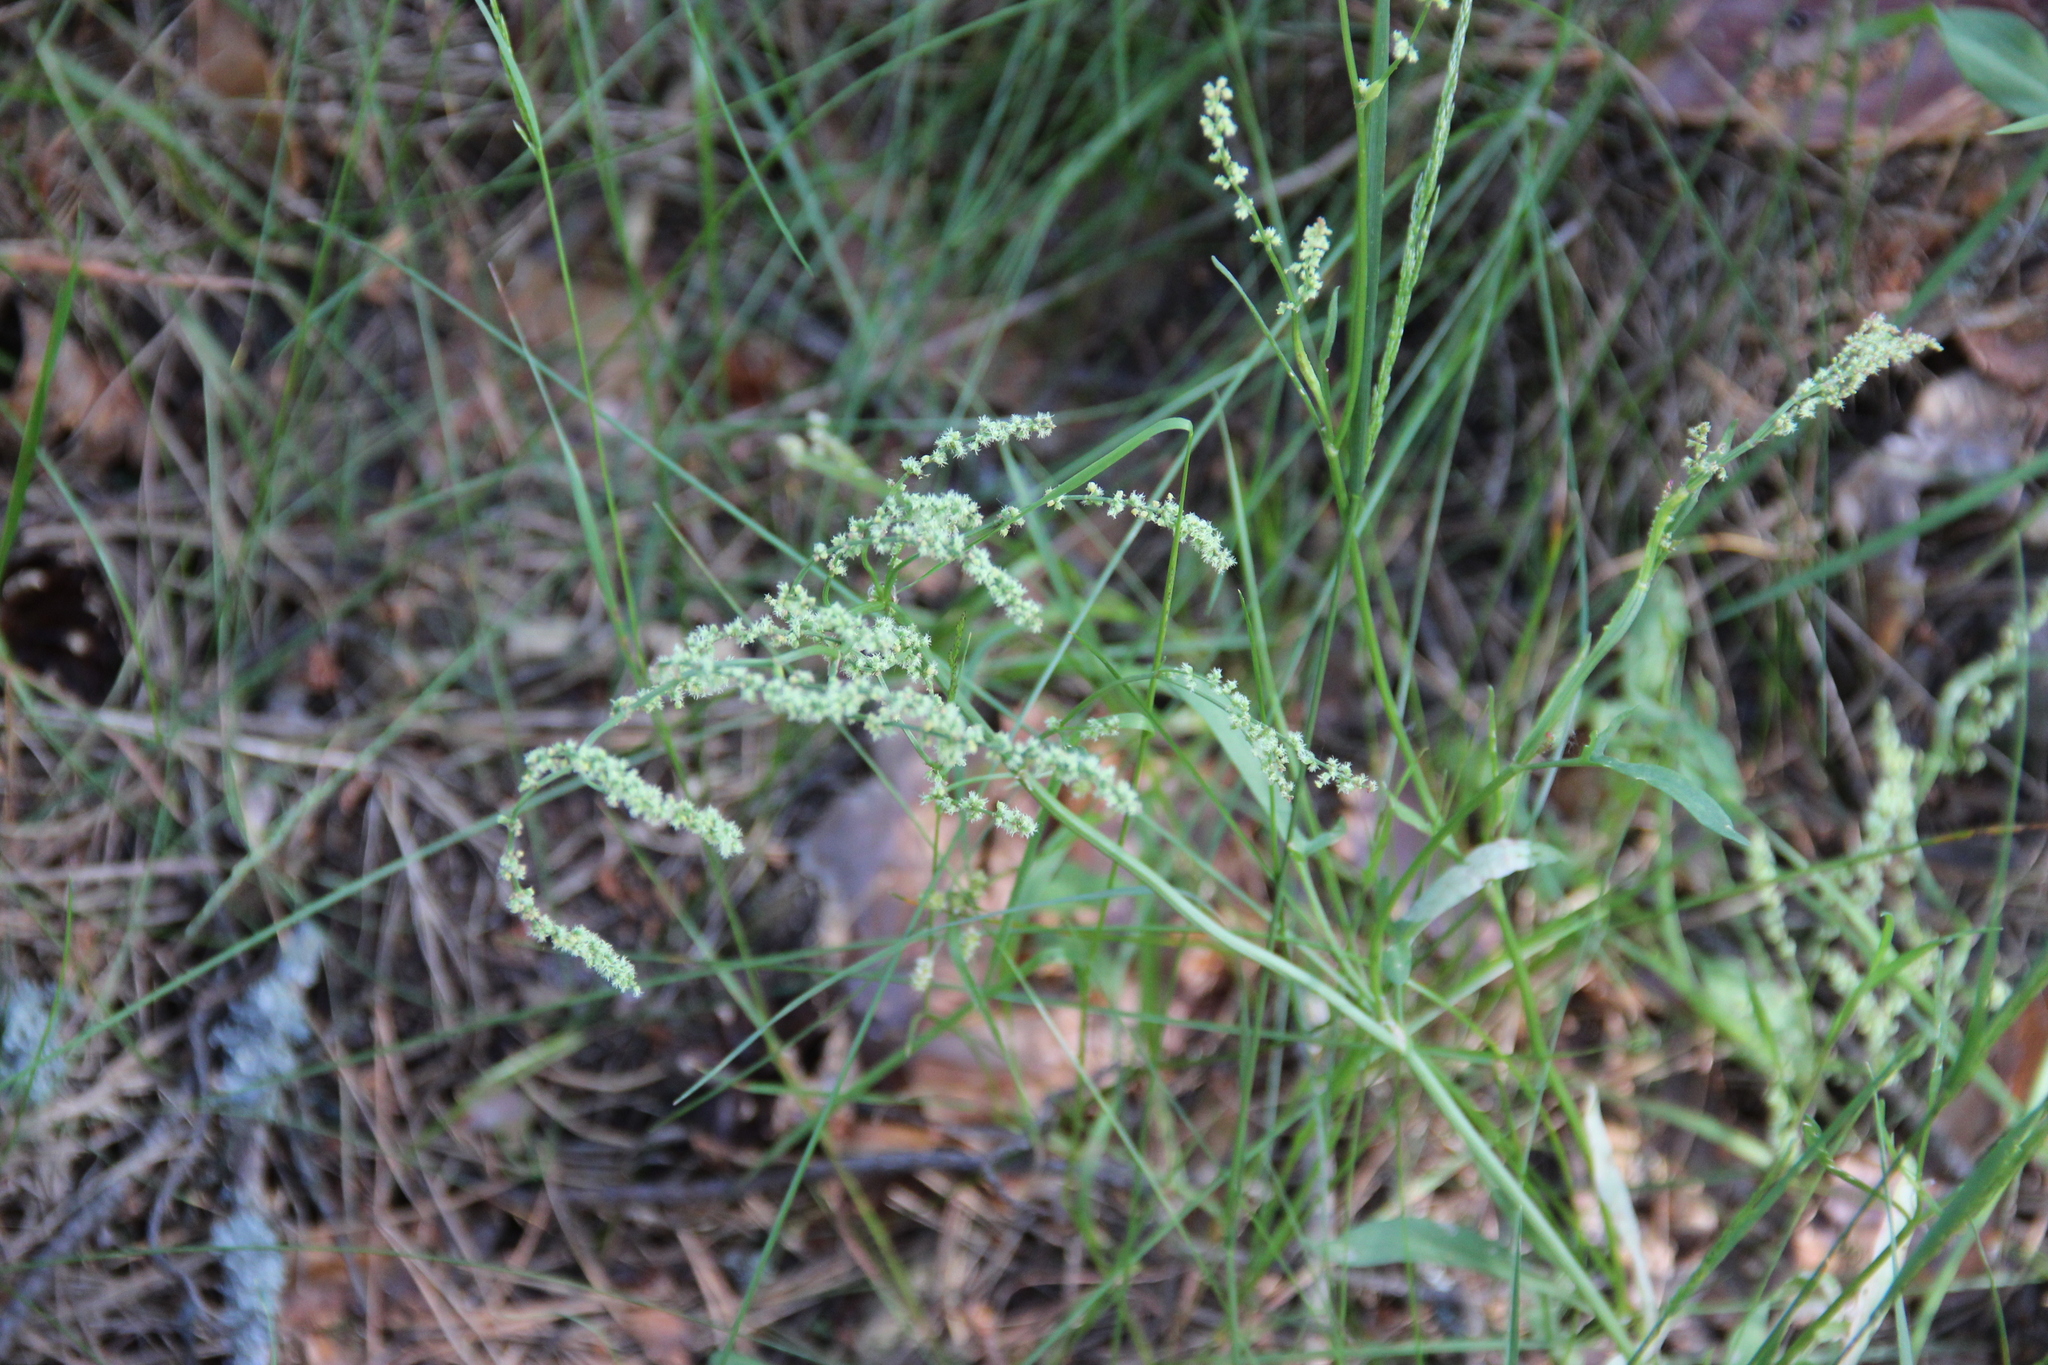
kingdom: Plantae
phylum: Tracheophyta
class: Magnoliopsida
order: Caryophyllales
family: Polygonaceae
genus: Rumex
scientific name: Rumex acetosella
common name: Common sheep sorrel
